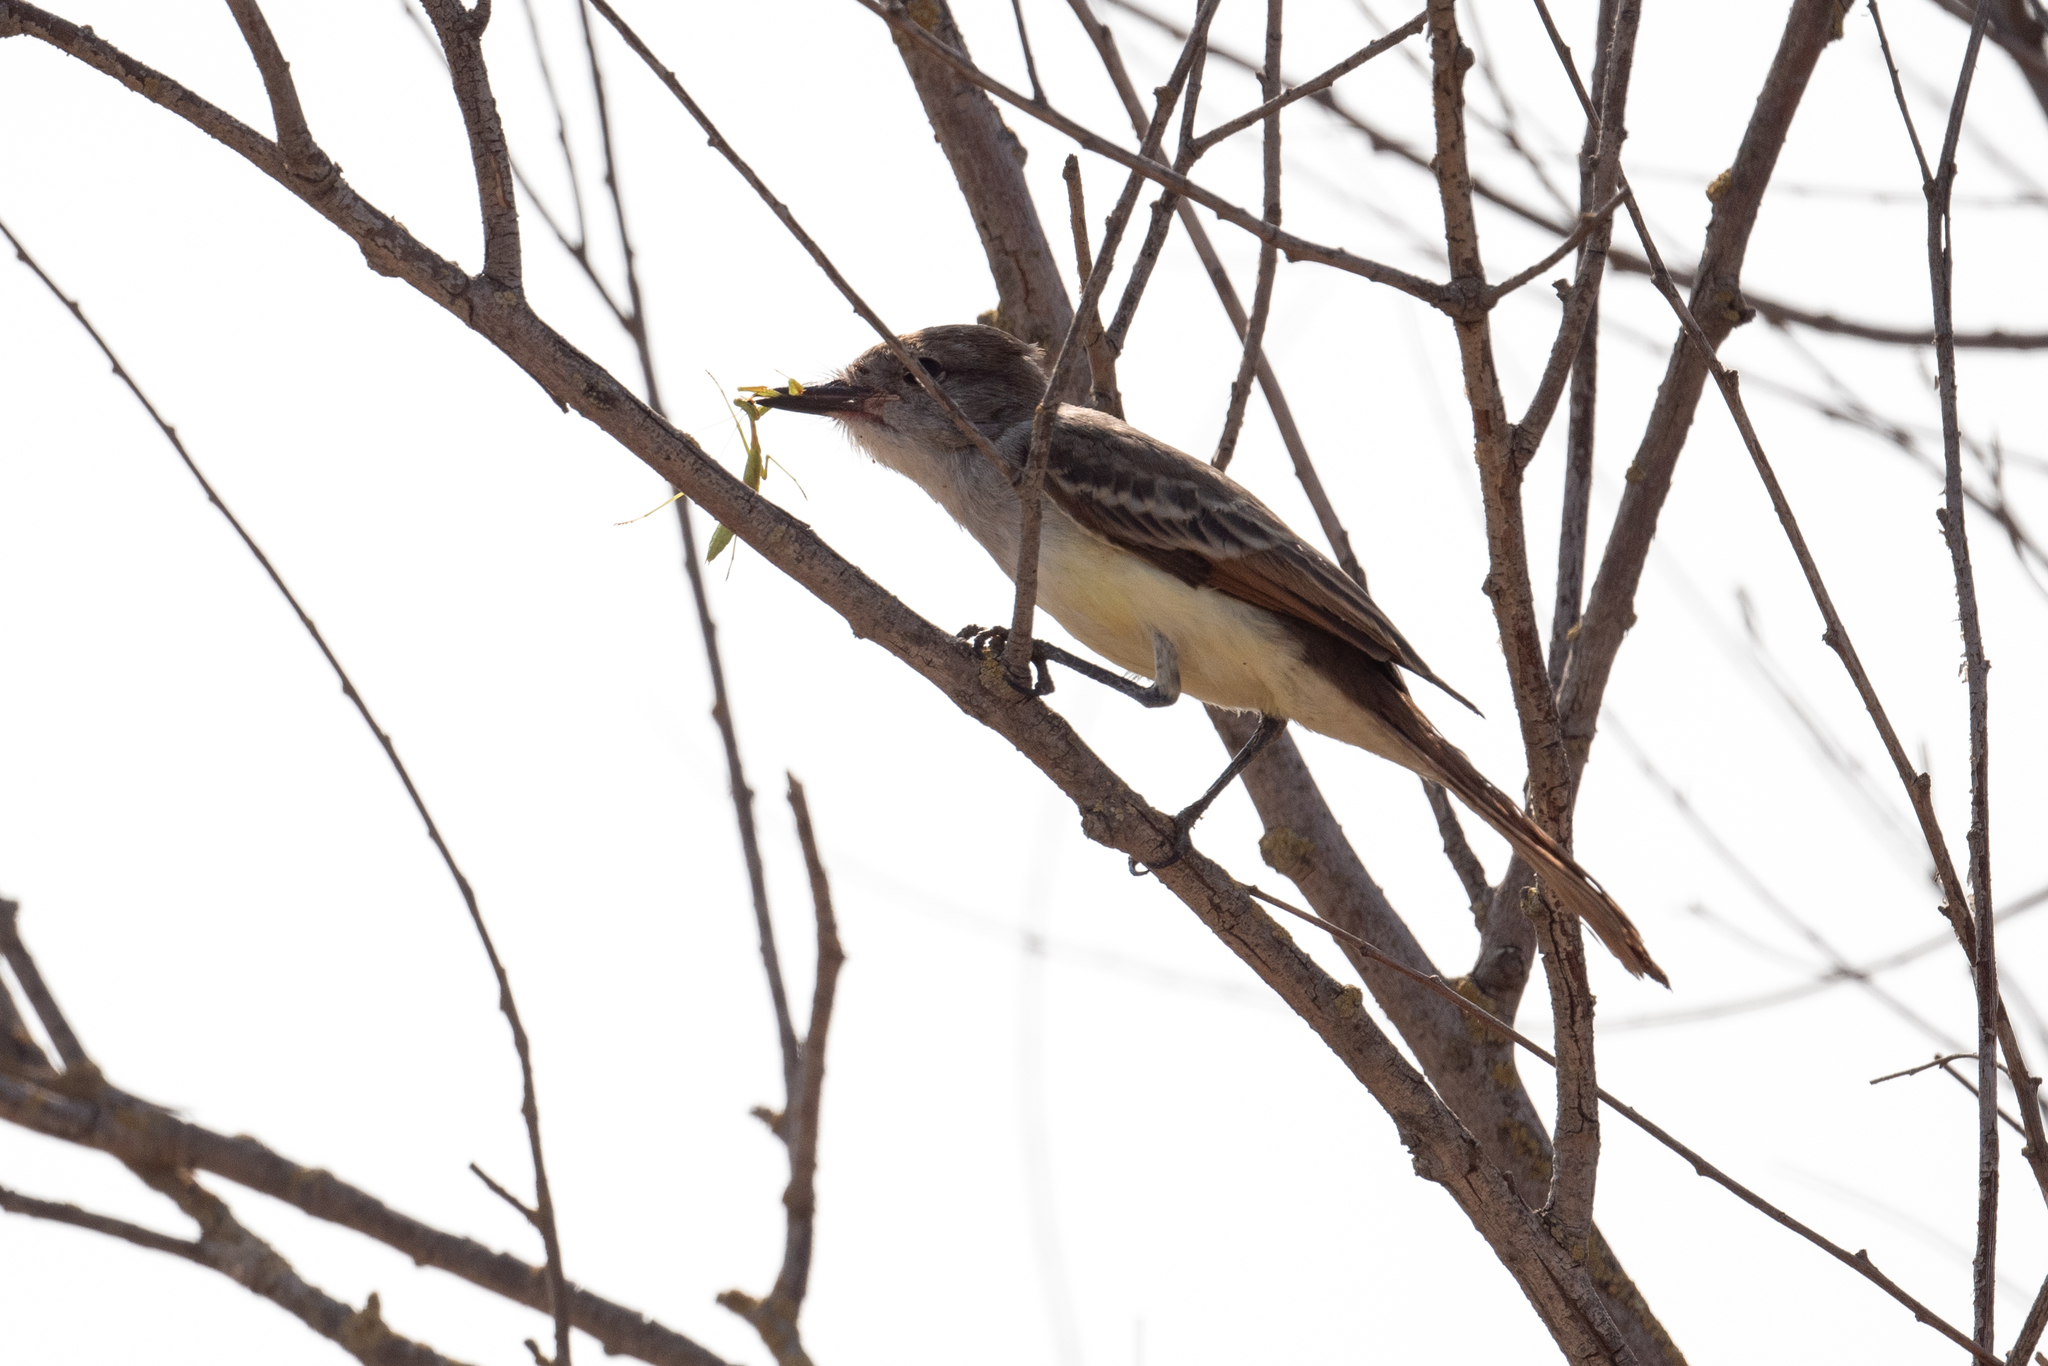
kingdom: Animalia
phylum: Chordata
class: Aves
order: Passeriformes
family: Tyrannidae
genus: Myiarchus
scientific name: Myiarchus cinerascens
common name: Ash-throated flycatcher
